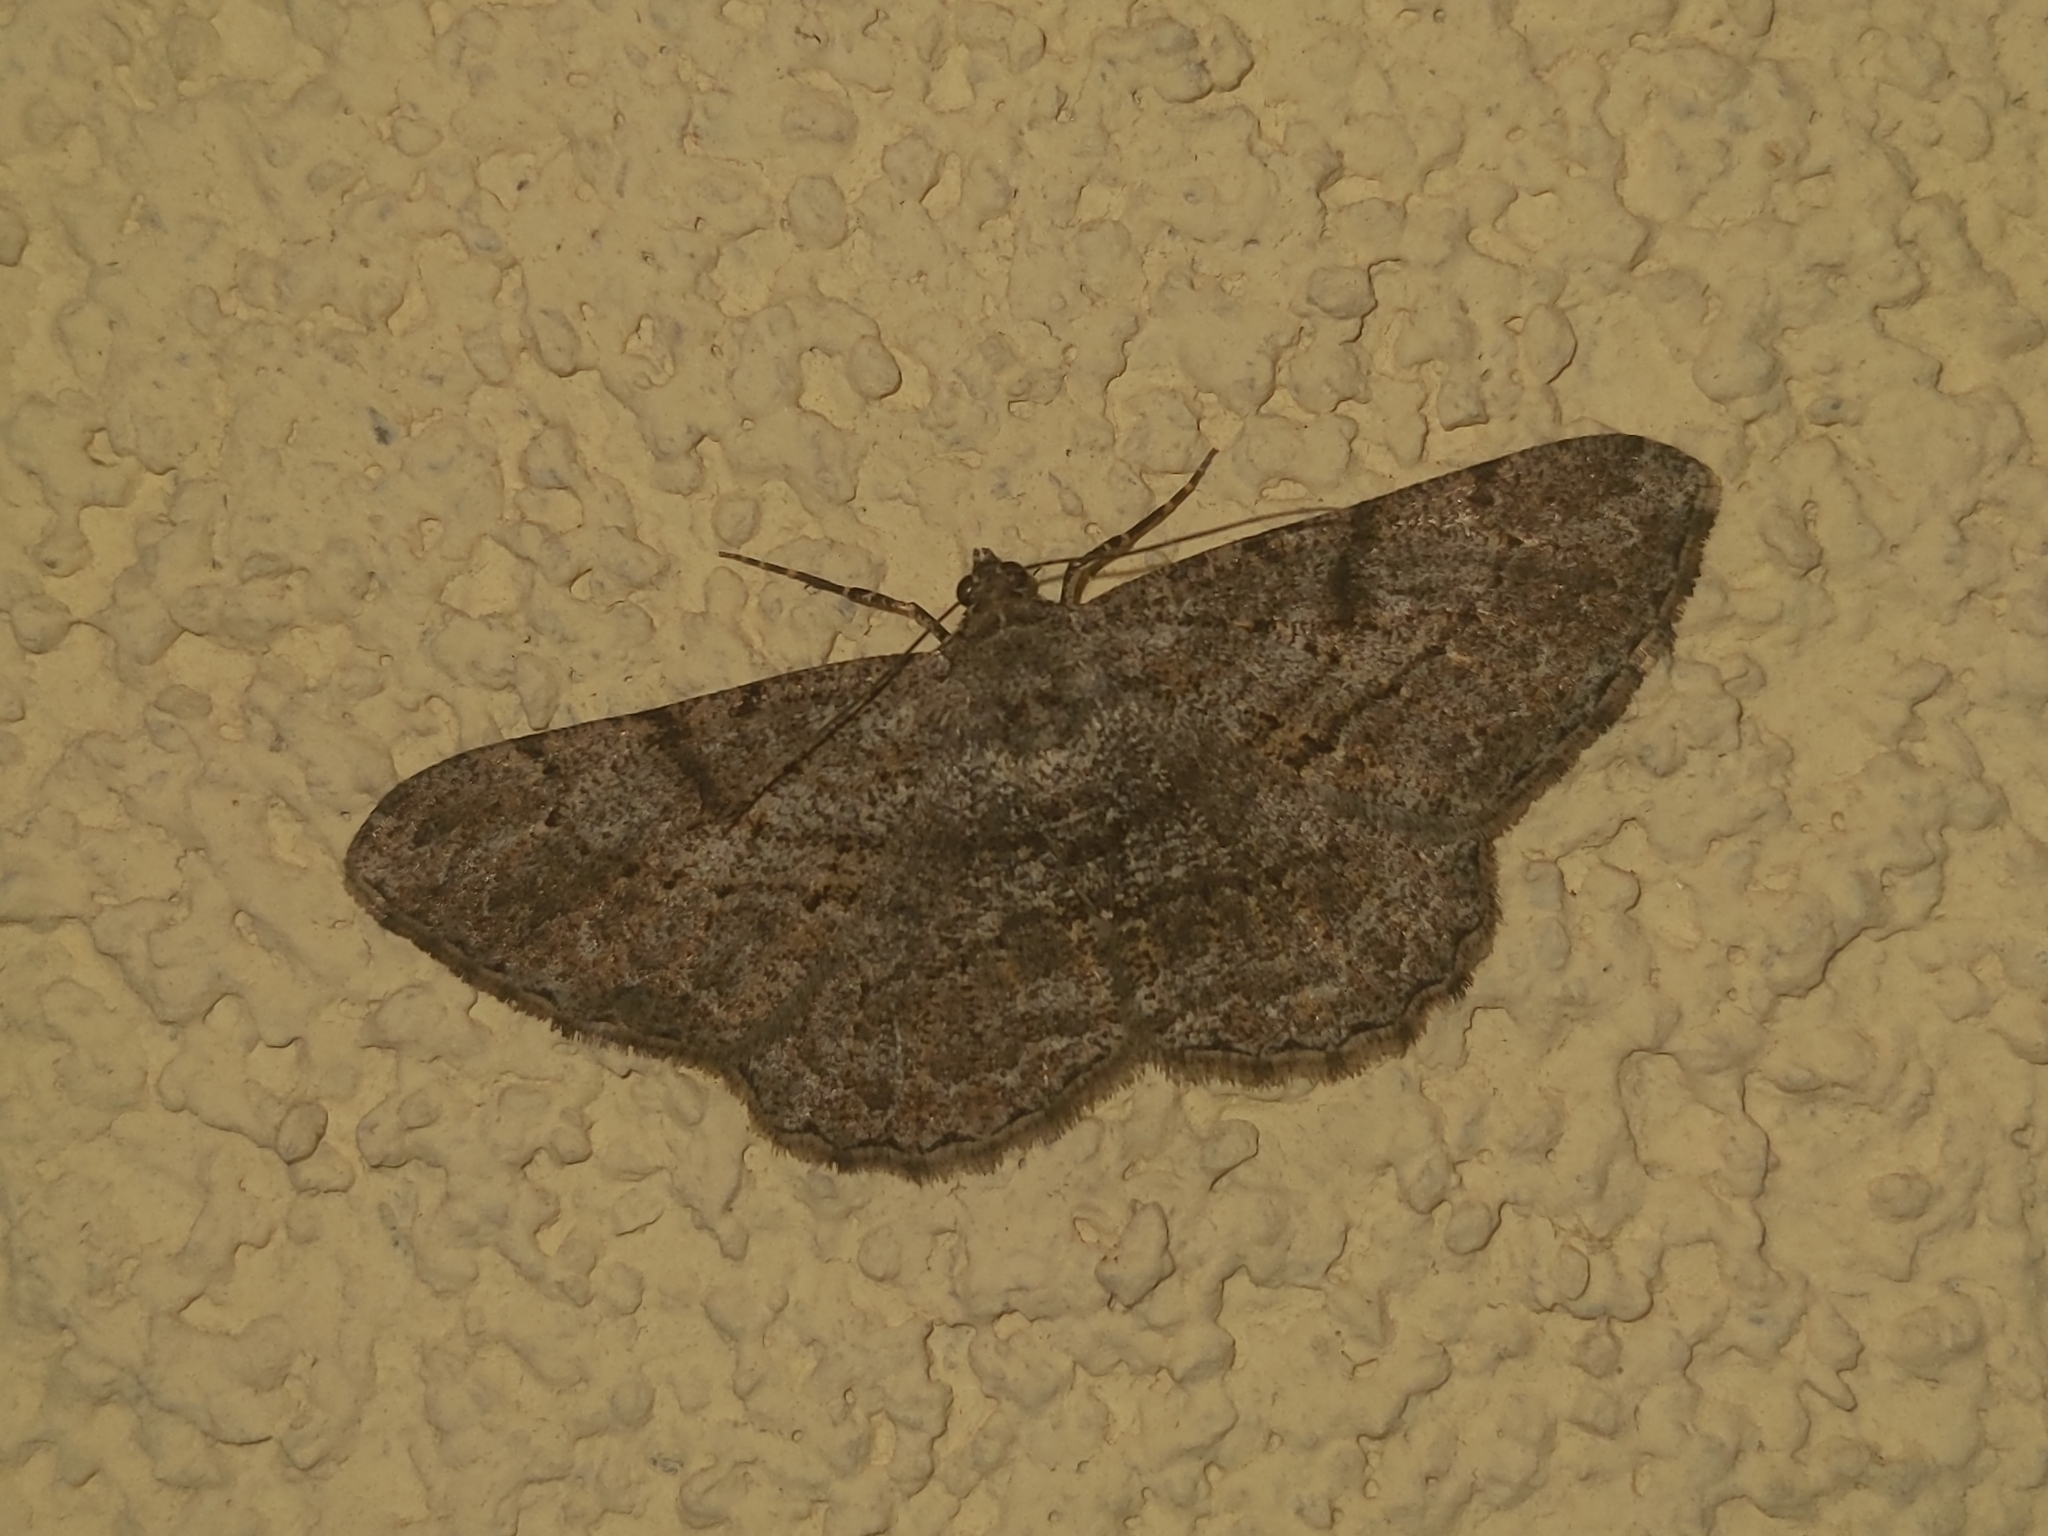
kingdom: Animalia
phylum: Arthropoda
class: Insecta
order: Lepidoptera
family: Geometridae
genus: Peribatodes
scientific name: Peribatodes rhomboidaria
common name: Willow beauty
